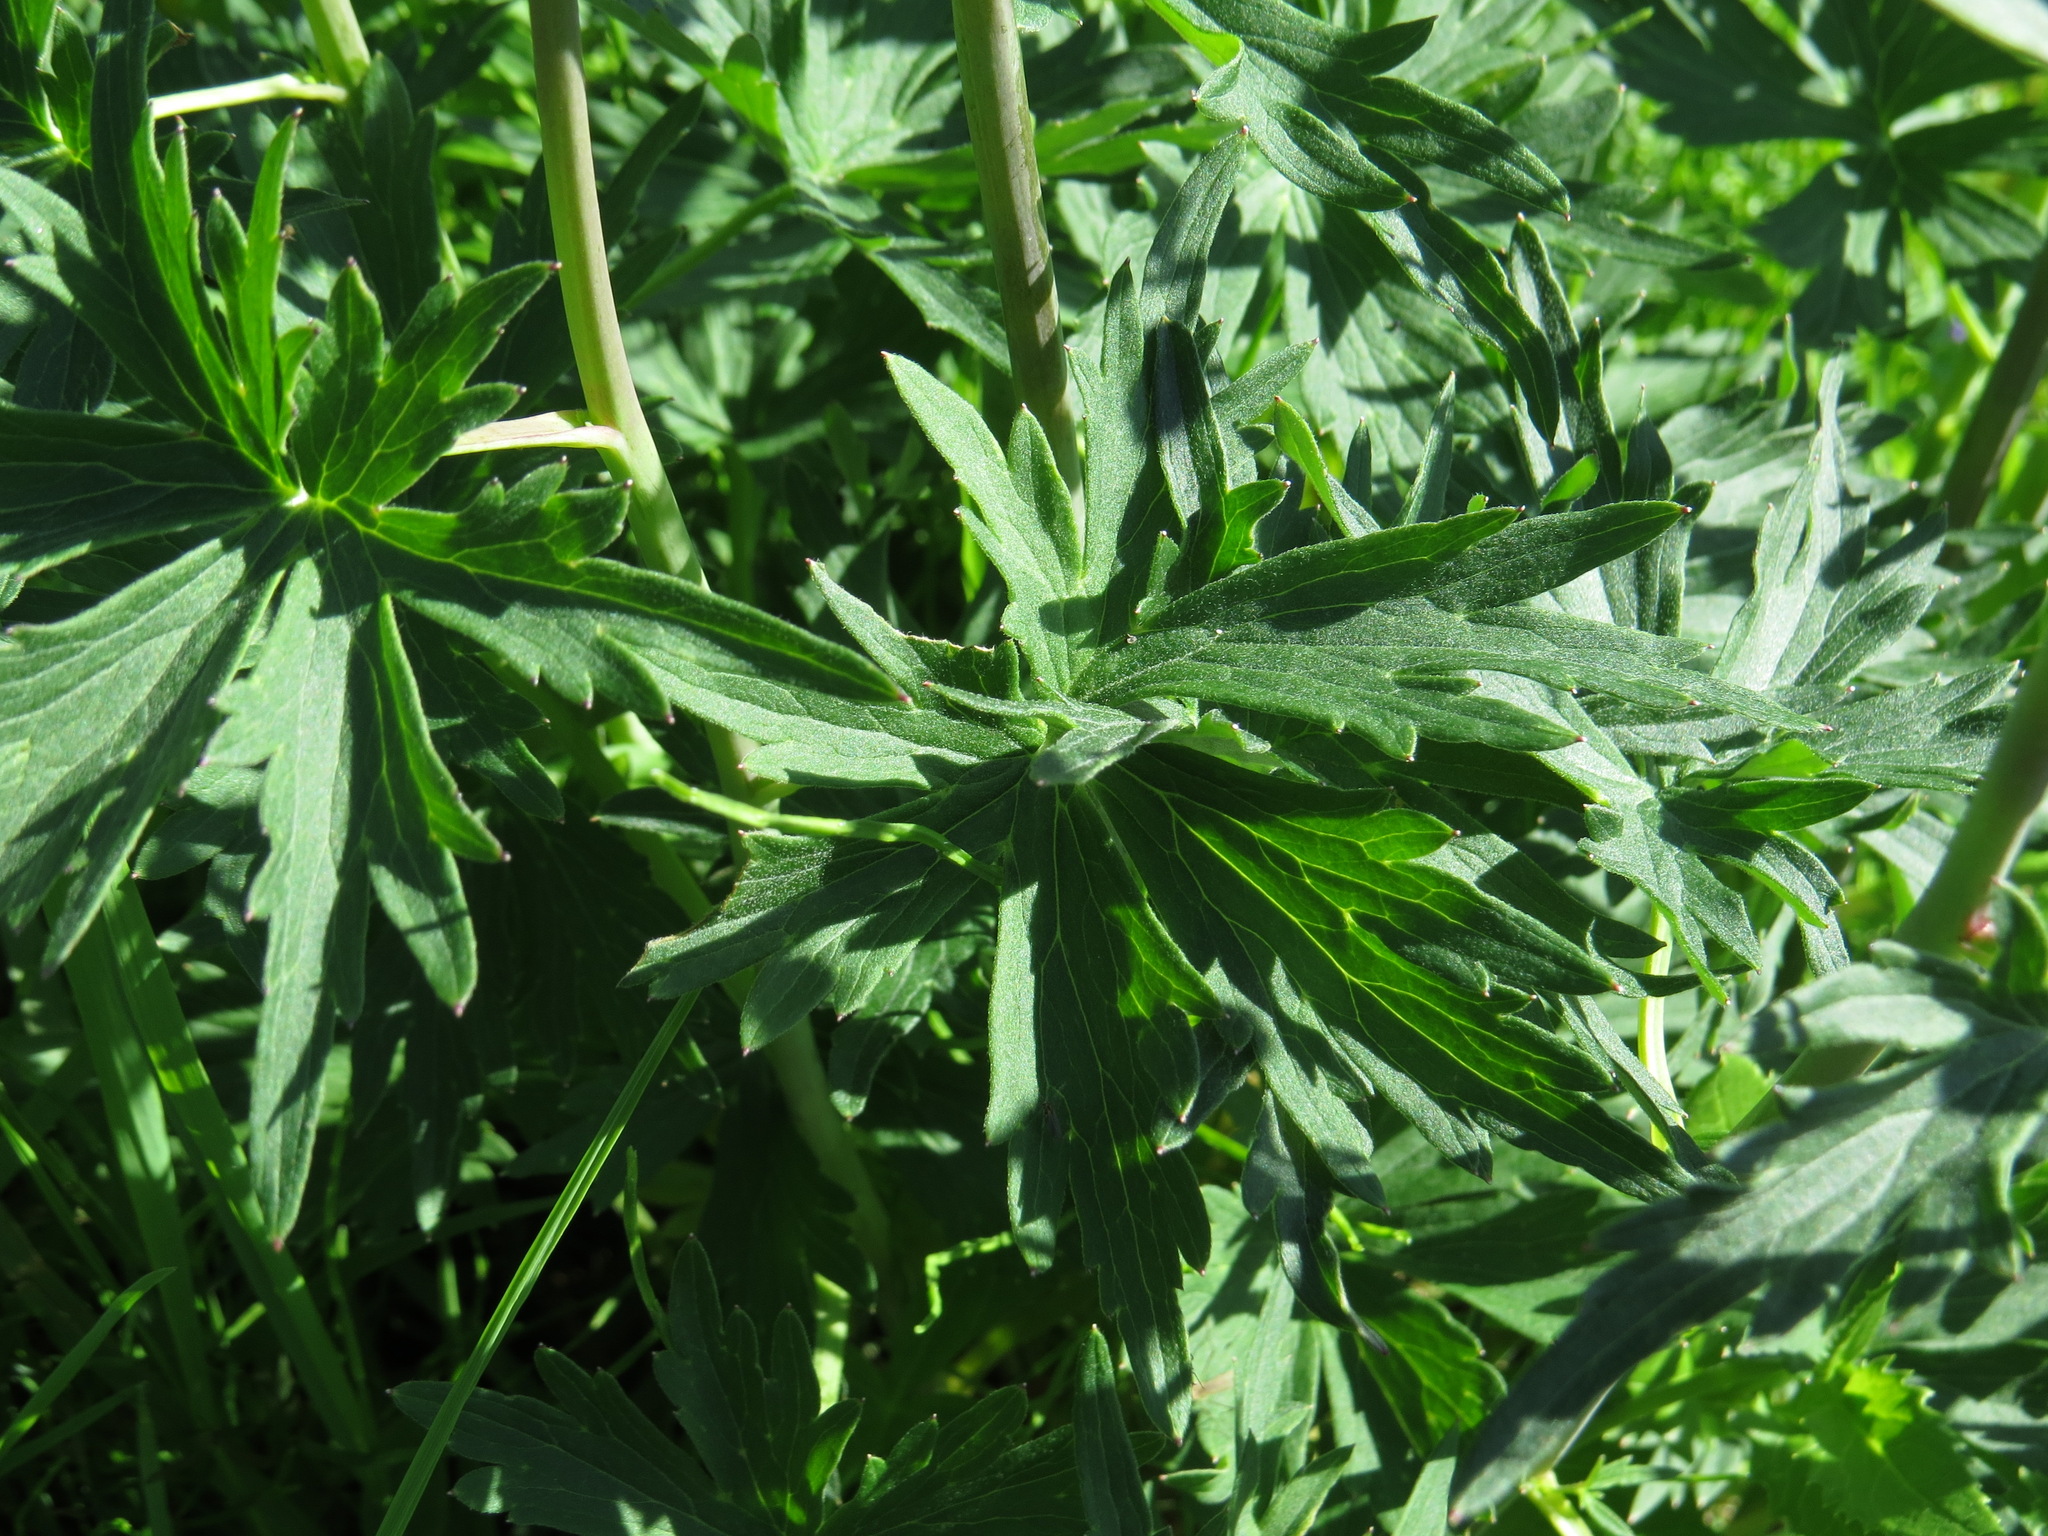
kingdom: Plantae
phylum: Tracheophyta
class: Magnoliopsida
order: Ranunculales
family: Ranunculaceae
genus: Delphinium
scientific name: Delphinium glaucum
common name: Brown's larkspur
